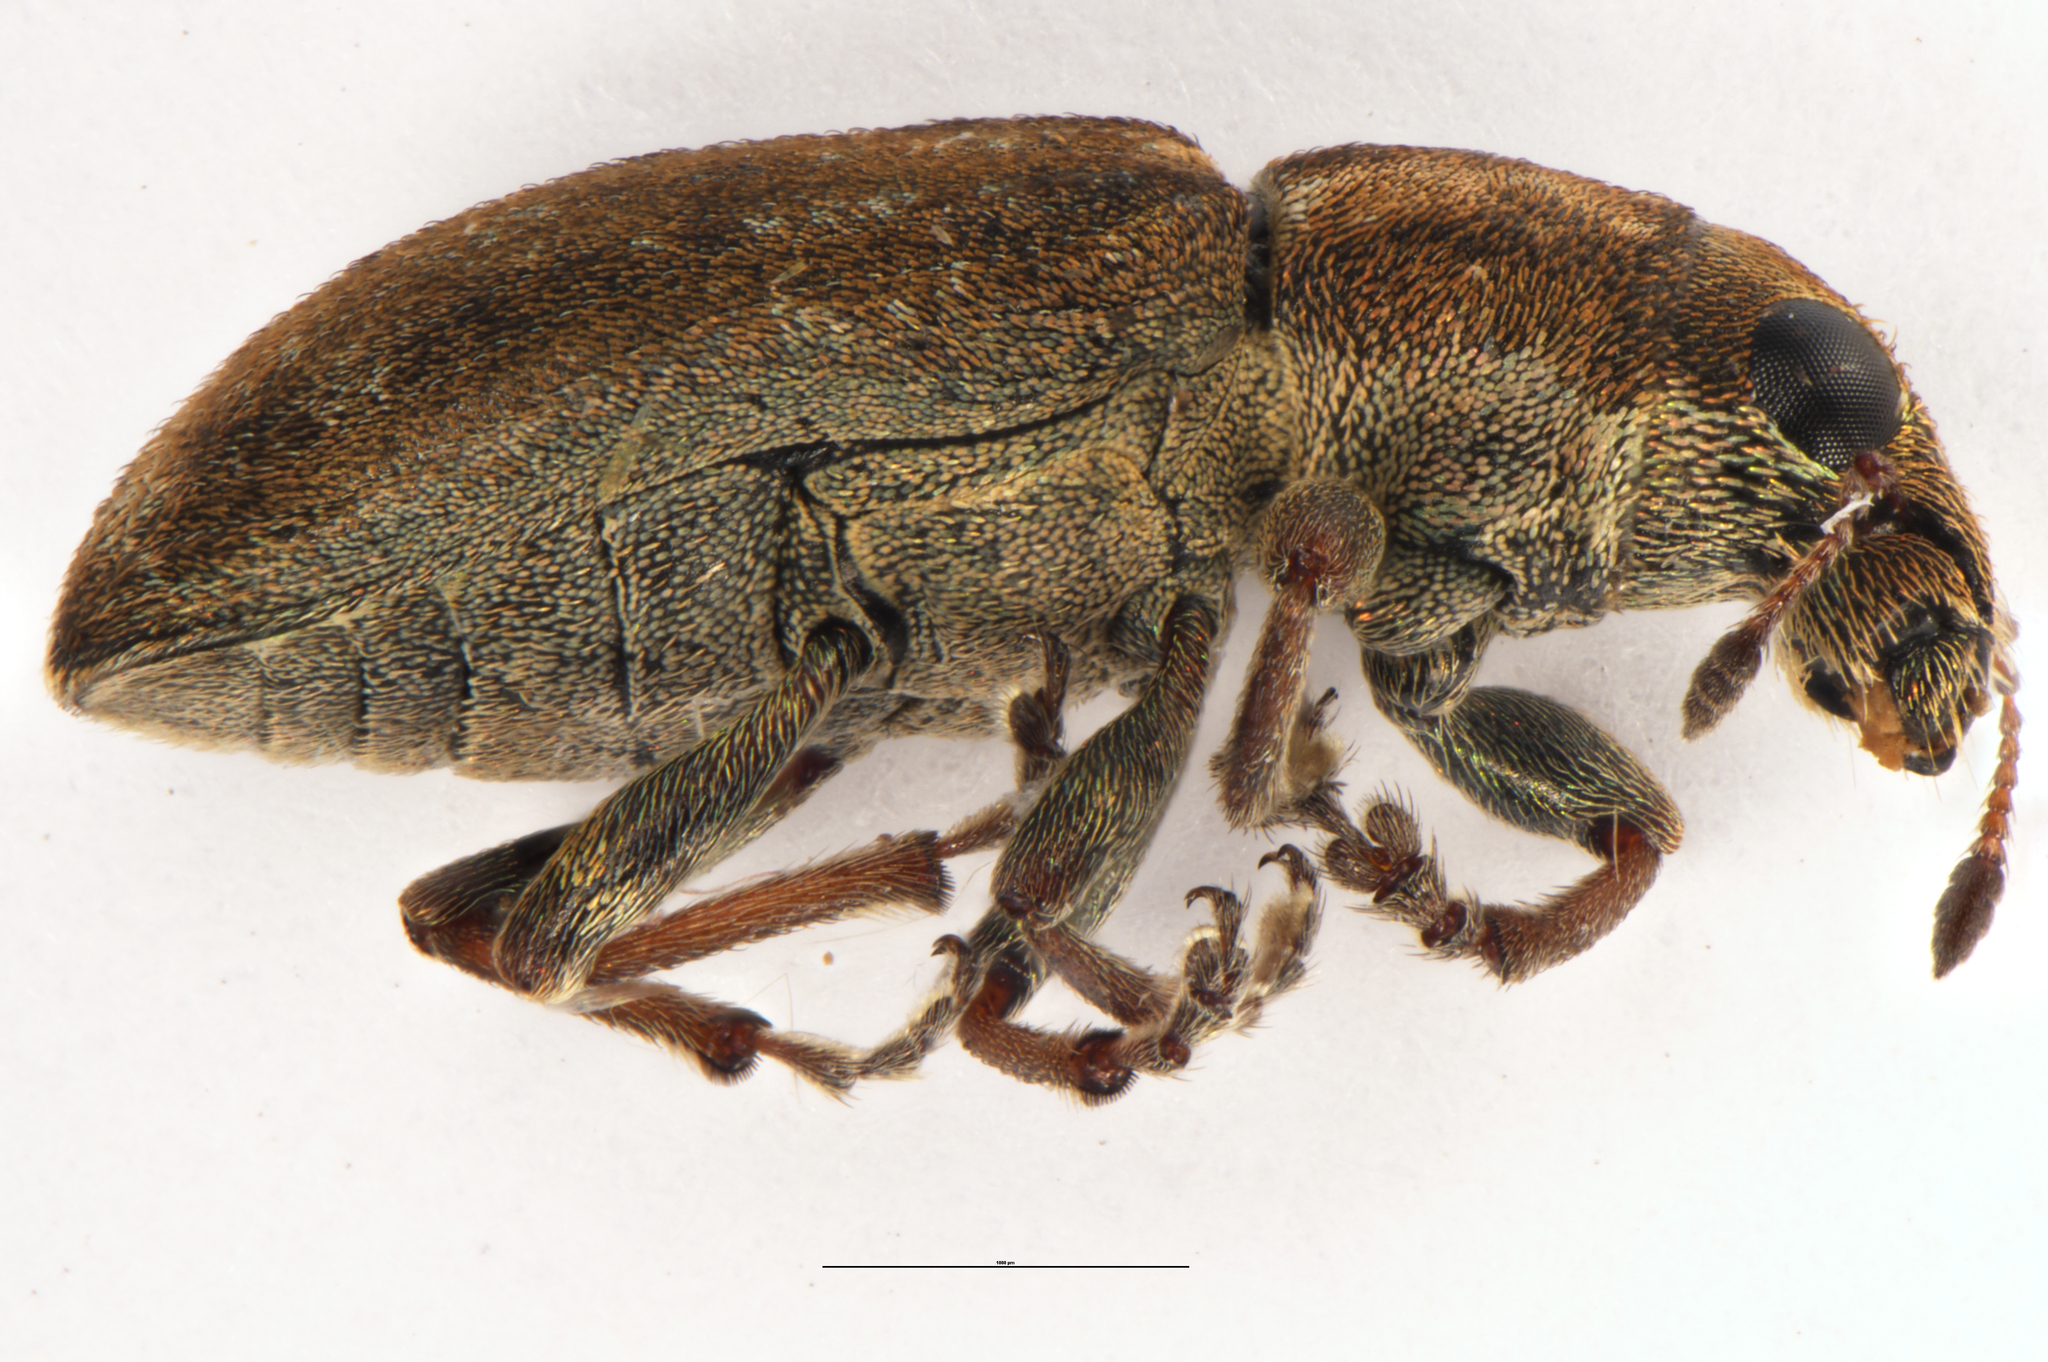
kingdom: Animalia
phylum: Arthropoda
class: Insecta
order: Coleoptera
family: Curculionidae
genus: Sitona
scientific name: Sitona obsoletus
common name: Weevil
